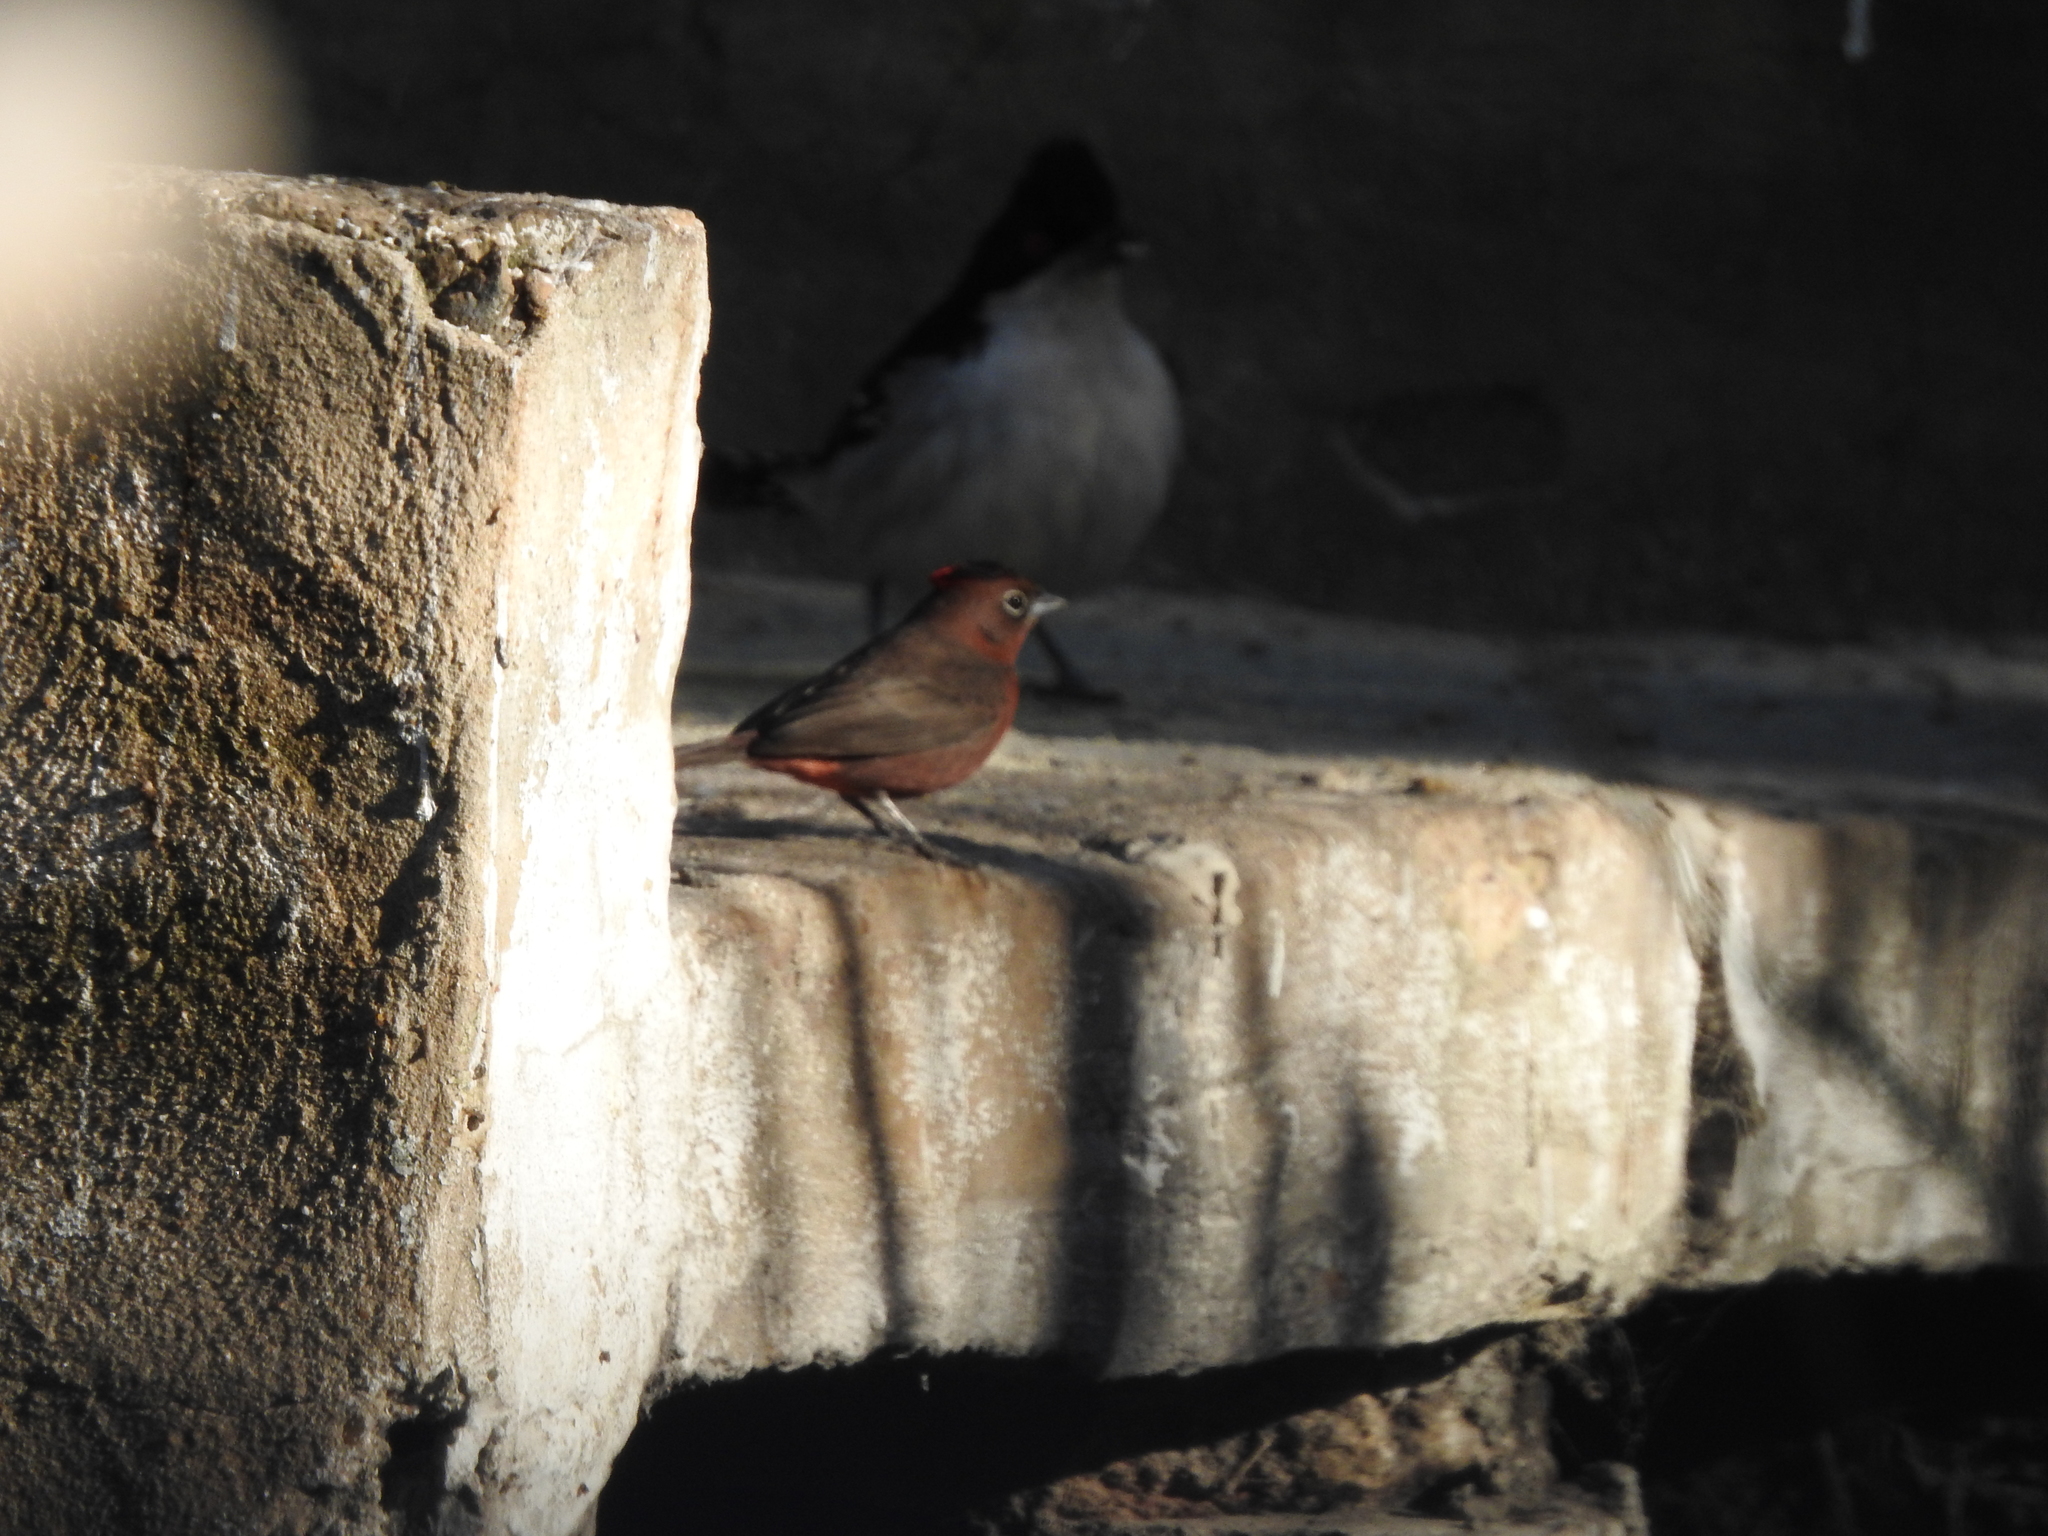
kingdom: Animalia
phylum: Chordata
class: Aves
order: Passeriformes
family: Thamnophilidae
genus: Taraba
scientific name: Taraba major
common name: Great antshrike
